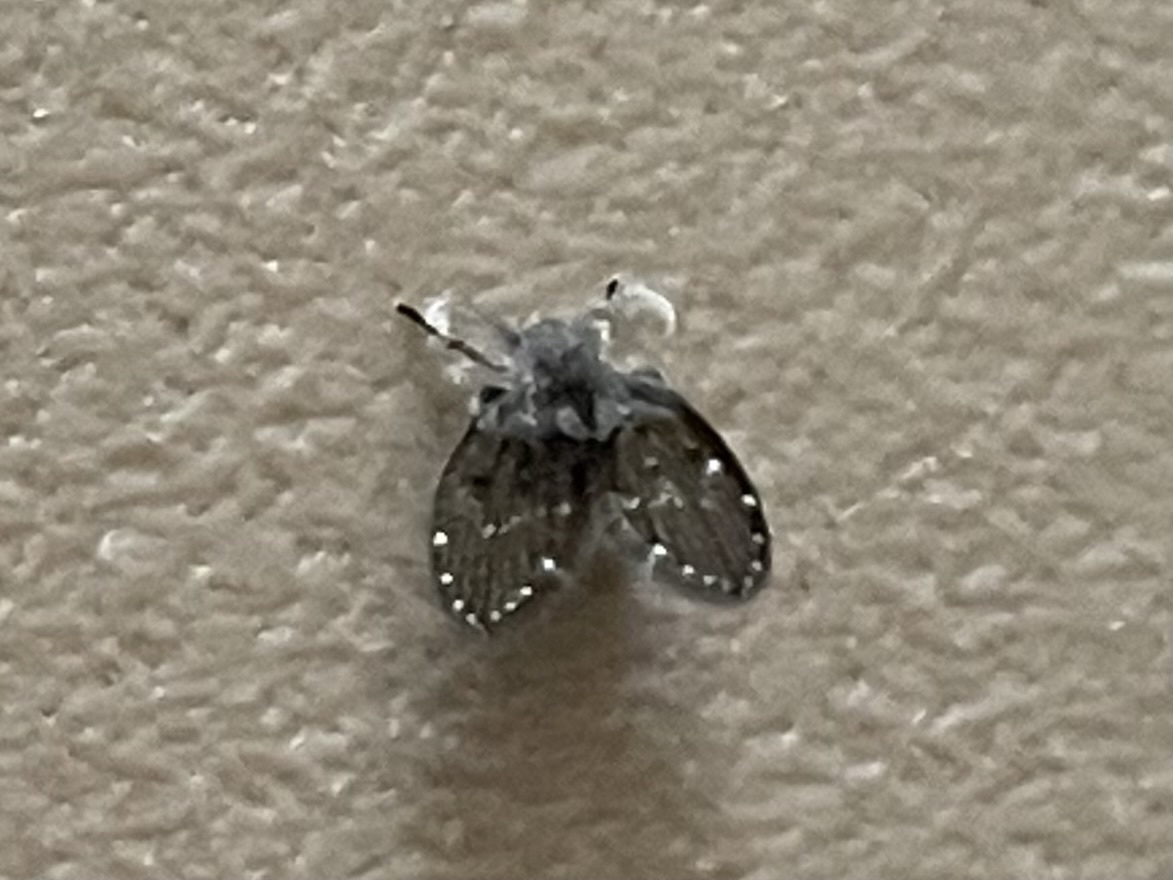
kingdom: Animalia
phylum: Arthropoda
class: Insecta
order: Diptera
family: Psychodidae
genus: Clogmia
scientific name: Clogmia albipunctatus
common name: White-spotted moth fly
